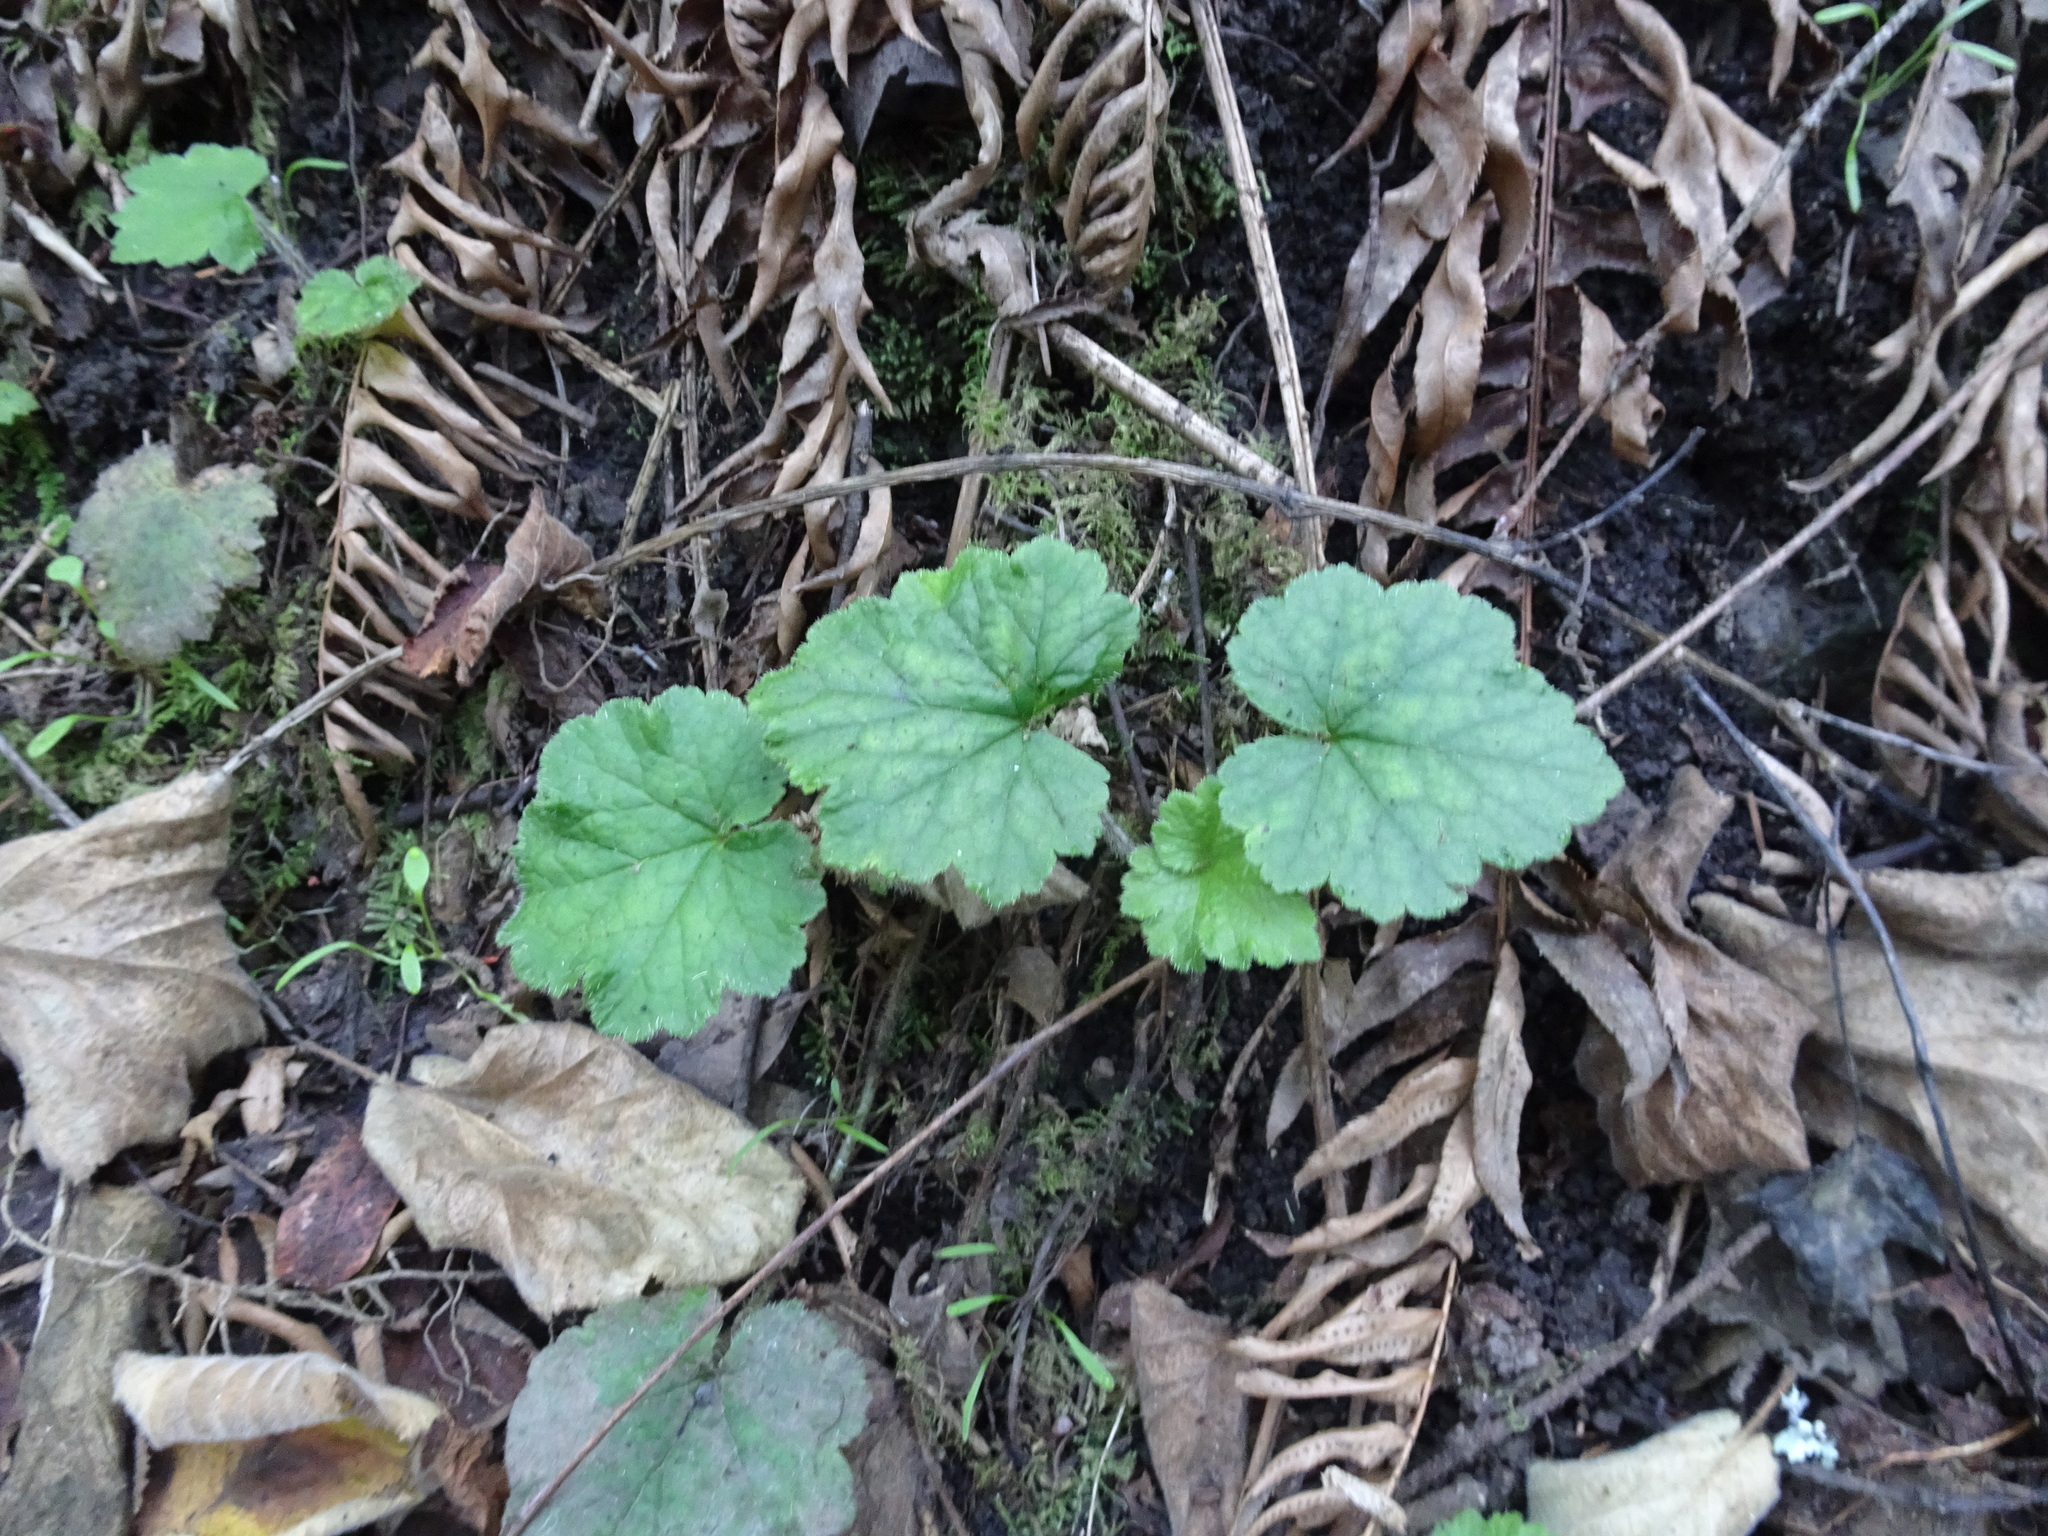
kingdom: Plantae
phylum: Tracheophyta
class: Magnoliopsida
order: Saxifragales
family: Saxifragaceae
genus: Heuchera
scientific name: Heuchera micrantha
